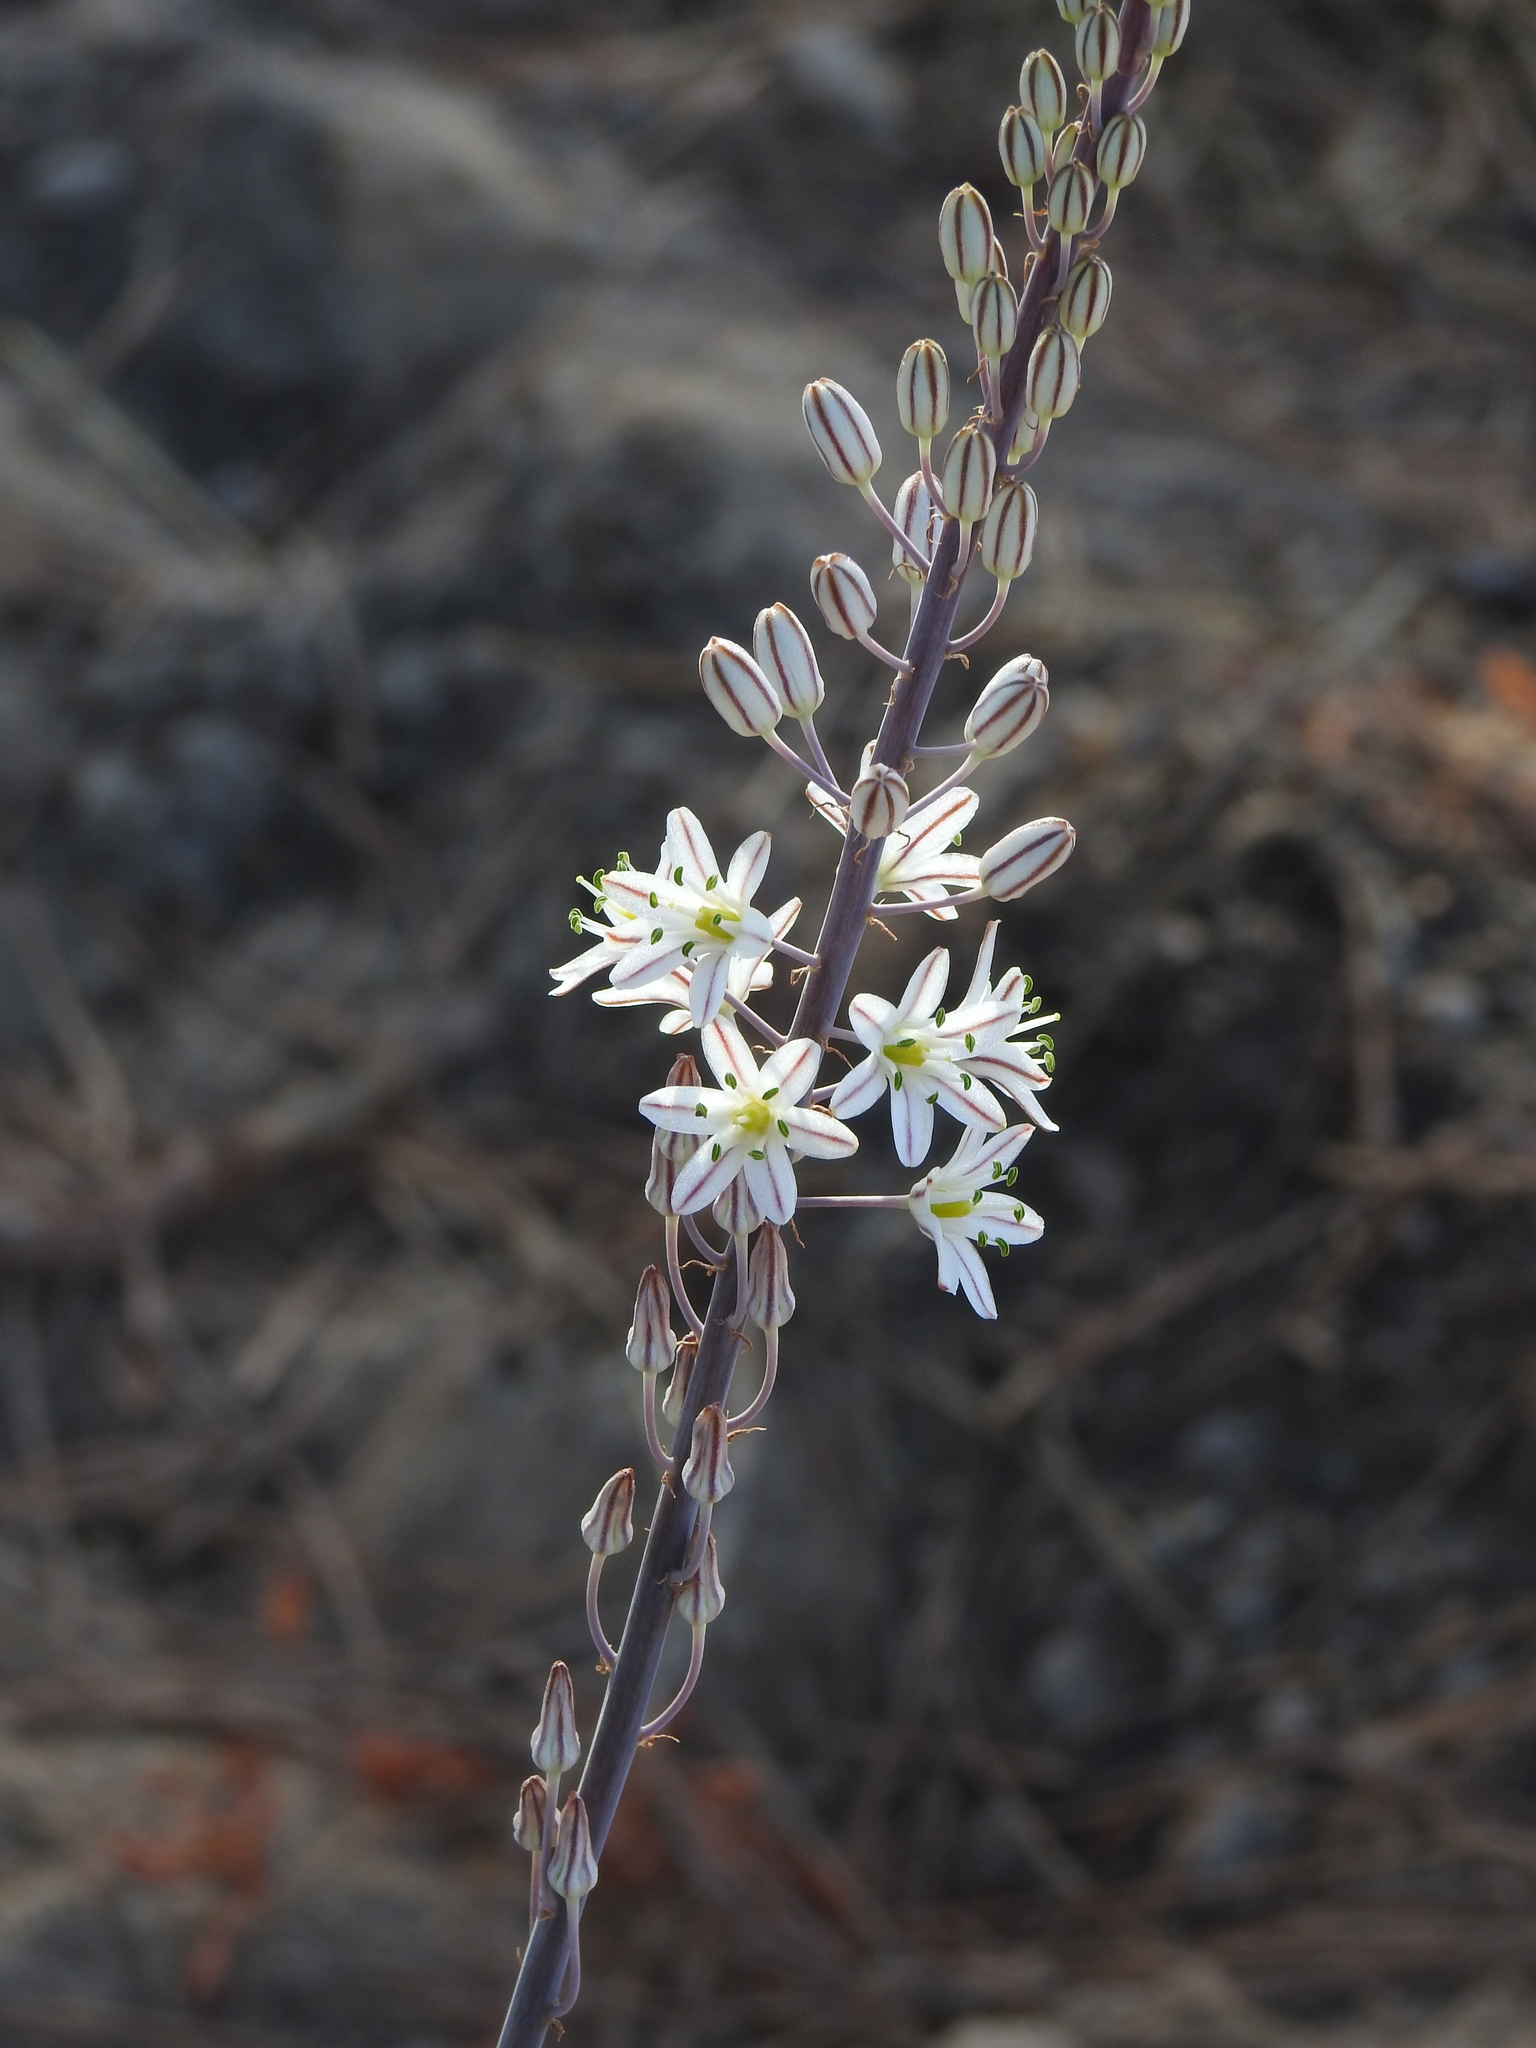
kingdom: Plantae
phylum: Tracheophyta
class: Liliopsida
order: Asparagales
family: Asparagaceae
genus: Drimia
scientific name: Drimia maritima
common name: Maritime squill
